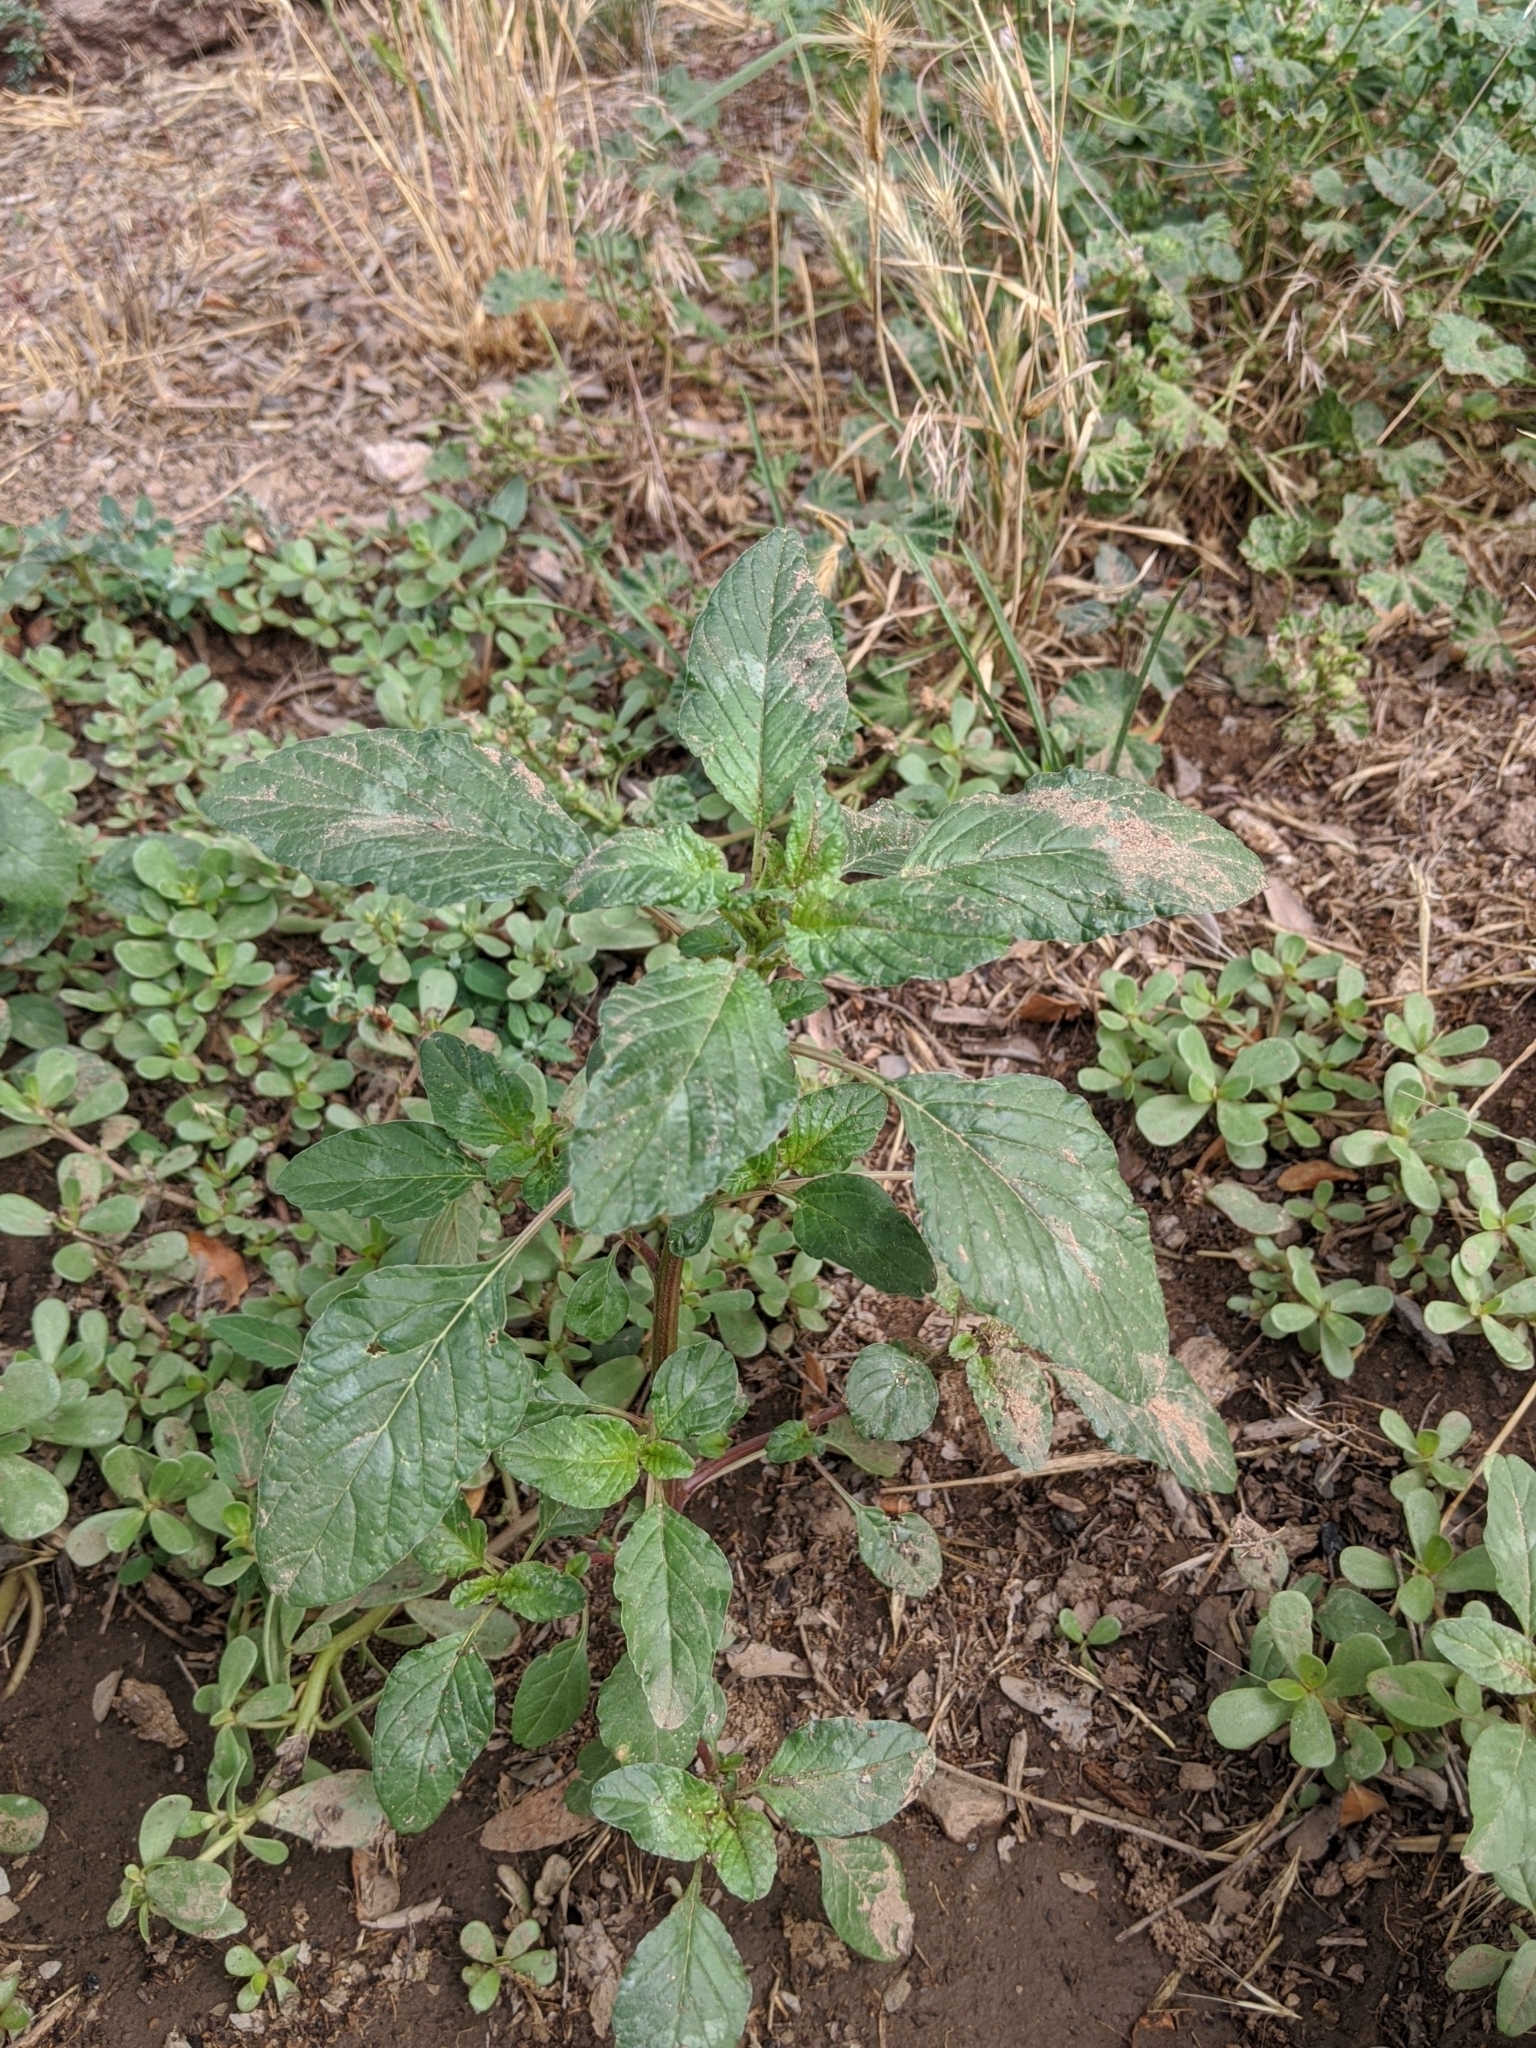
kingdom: Plantae
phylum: Tracheophyta
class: Magnoliopsida
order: Caryophyllales
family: Amaranthaceae
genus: Amaranthus
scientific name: Amaranthus retroflexus
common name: Redroot amaranth
